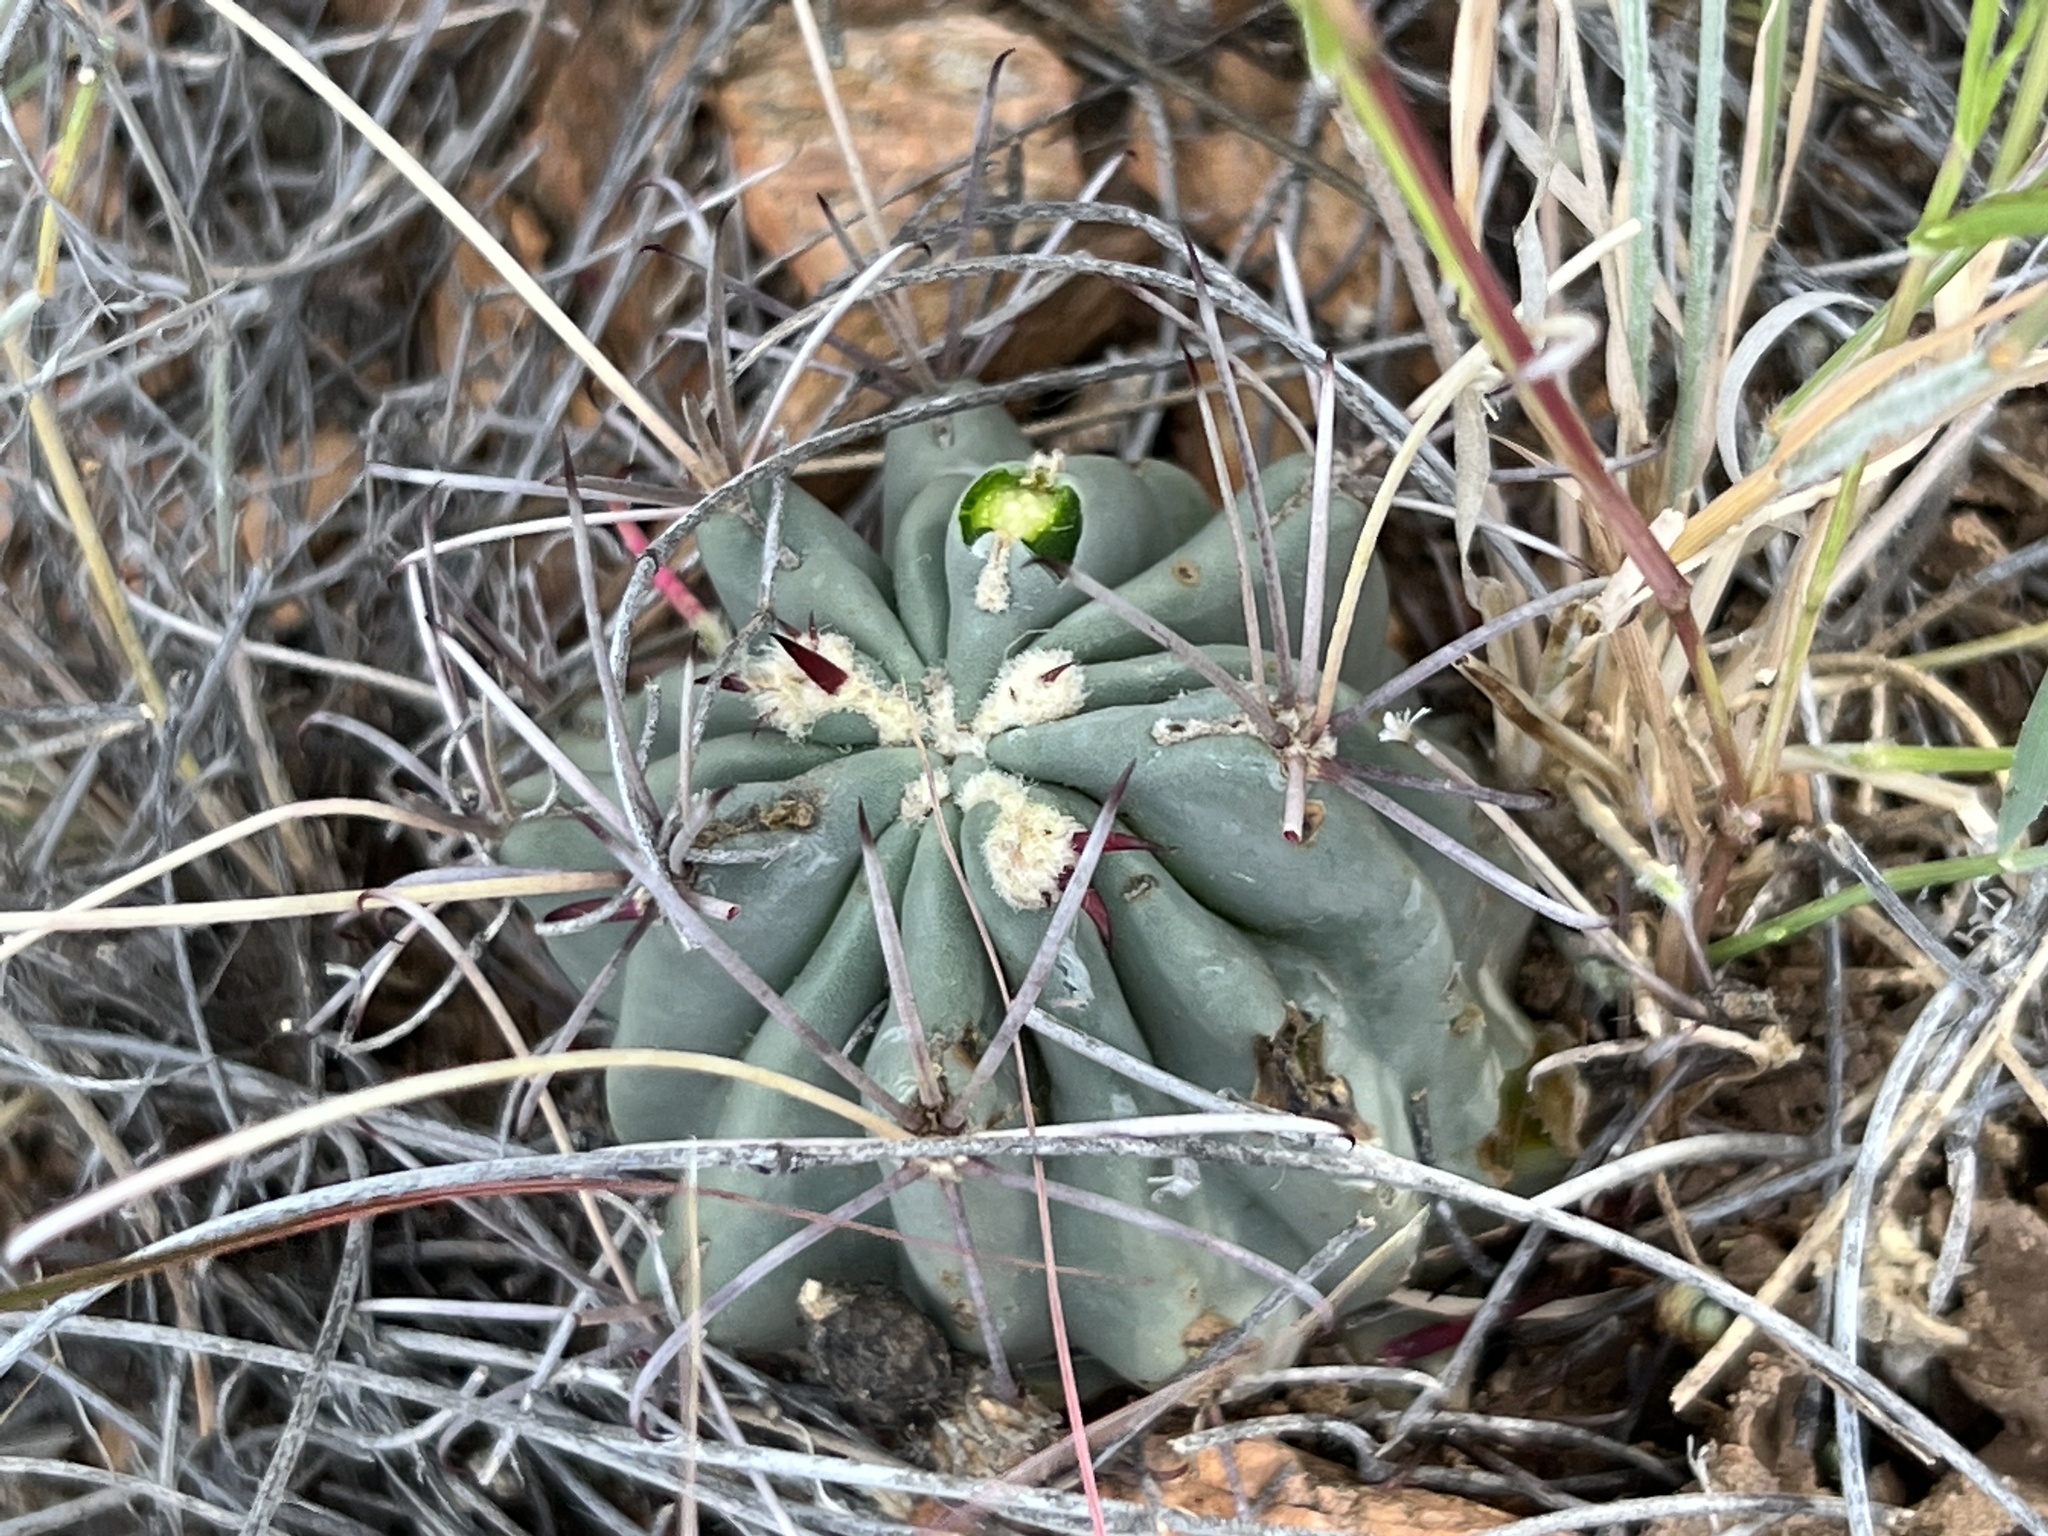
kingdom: Plantae
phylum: Tracheophyta
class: Magnoliopsida
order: Caryophyllales
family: Cactaceae
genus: Ferocactus
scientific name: Ferocactus uncinatus
